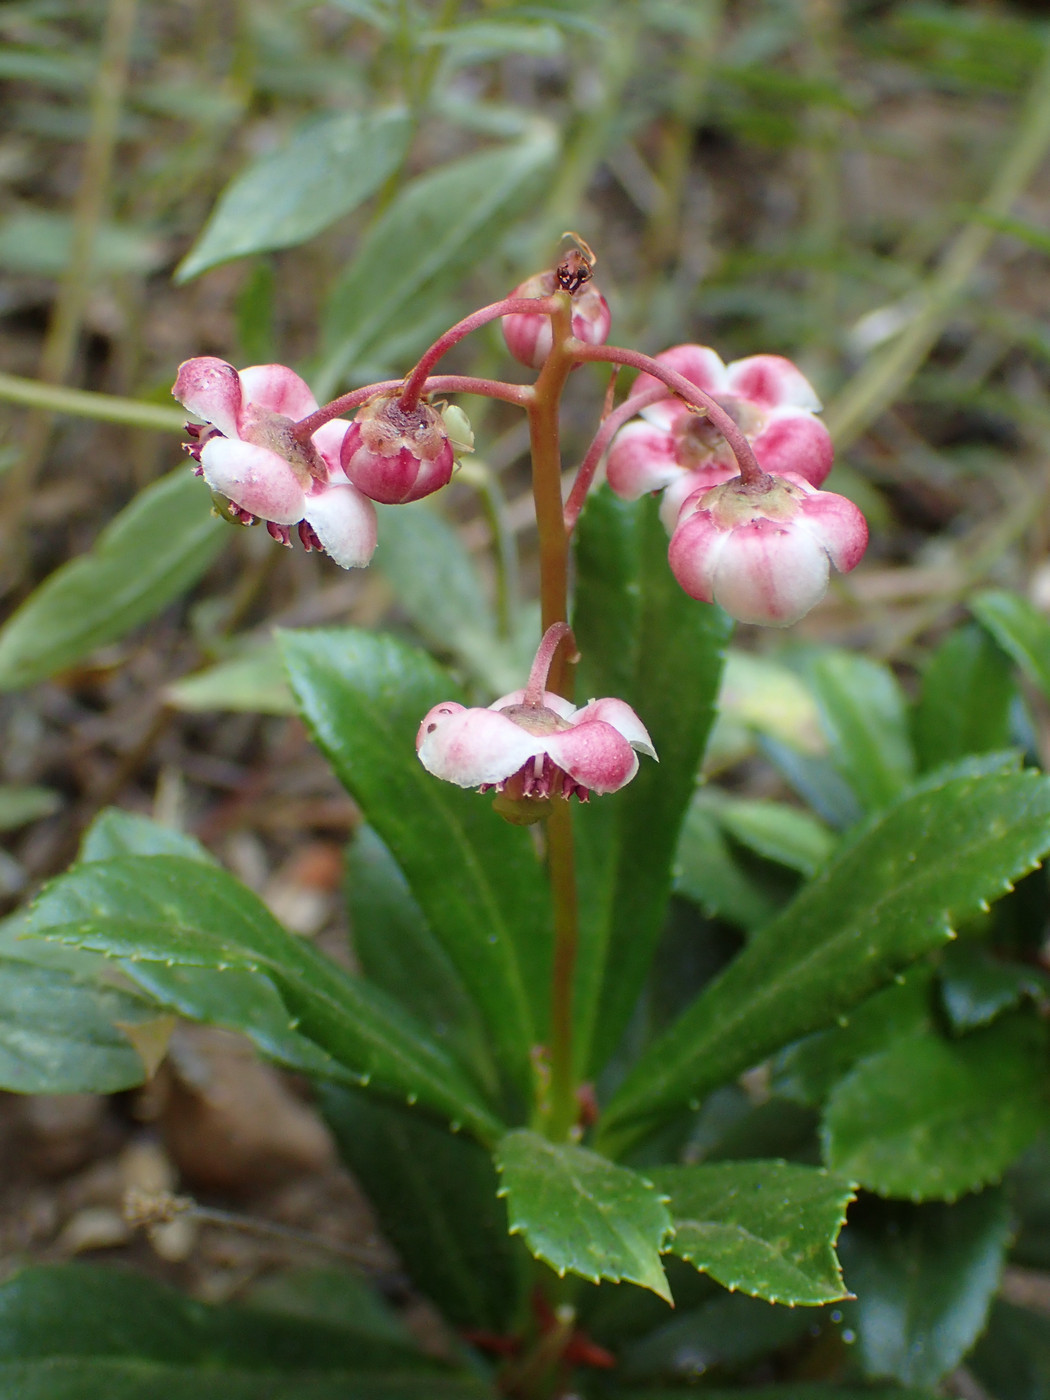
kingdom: Plantae
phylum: Tracheophyta
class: Magnoliopsida
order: Ericales
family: Ericaceae
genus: Chimaphila
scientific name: Chimaphila umbellata
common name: Pipsissewa
